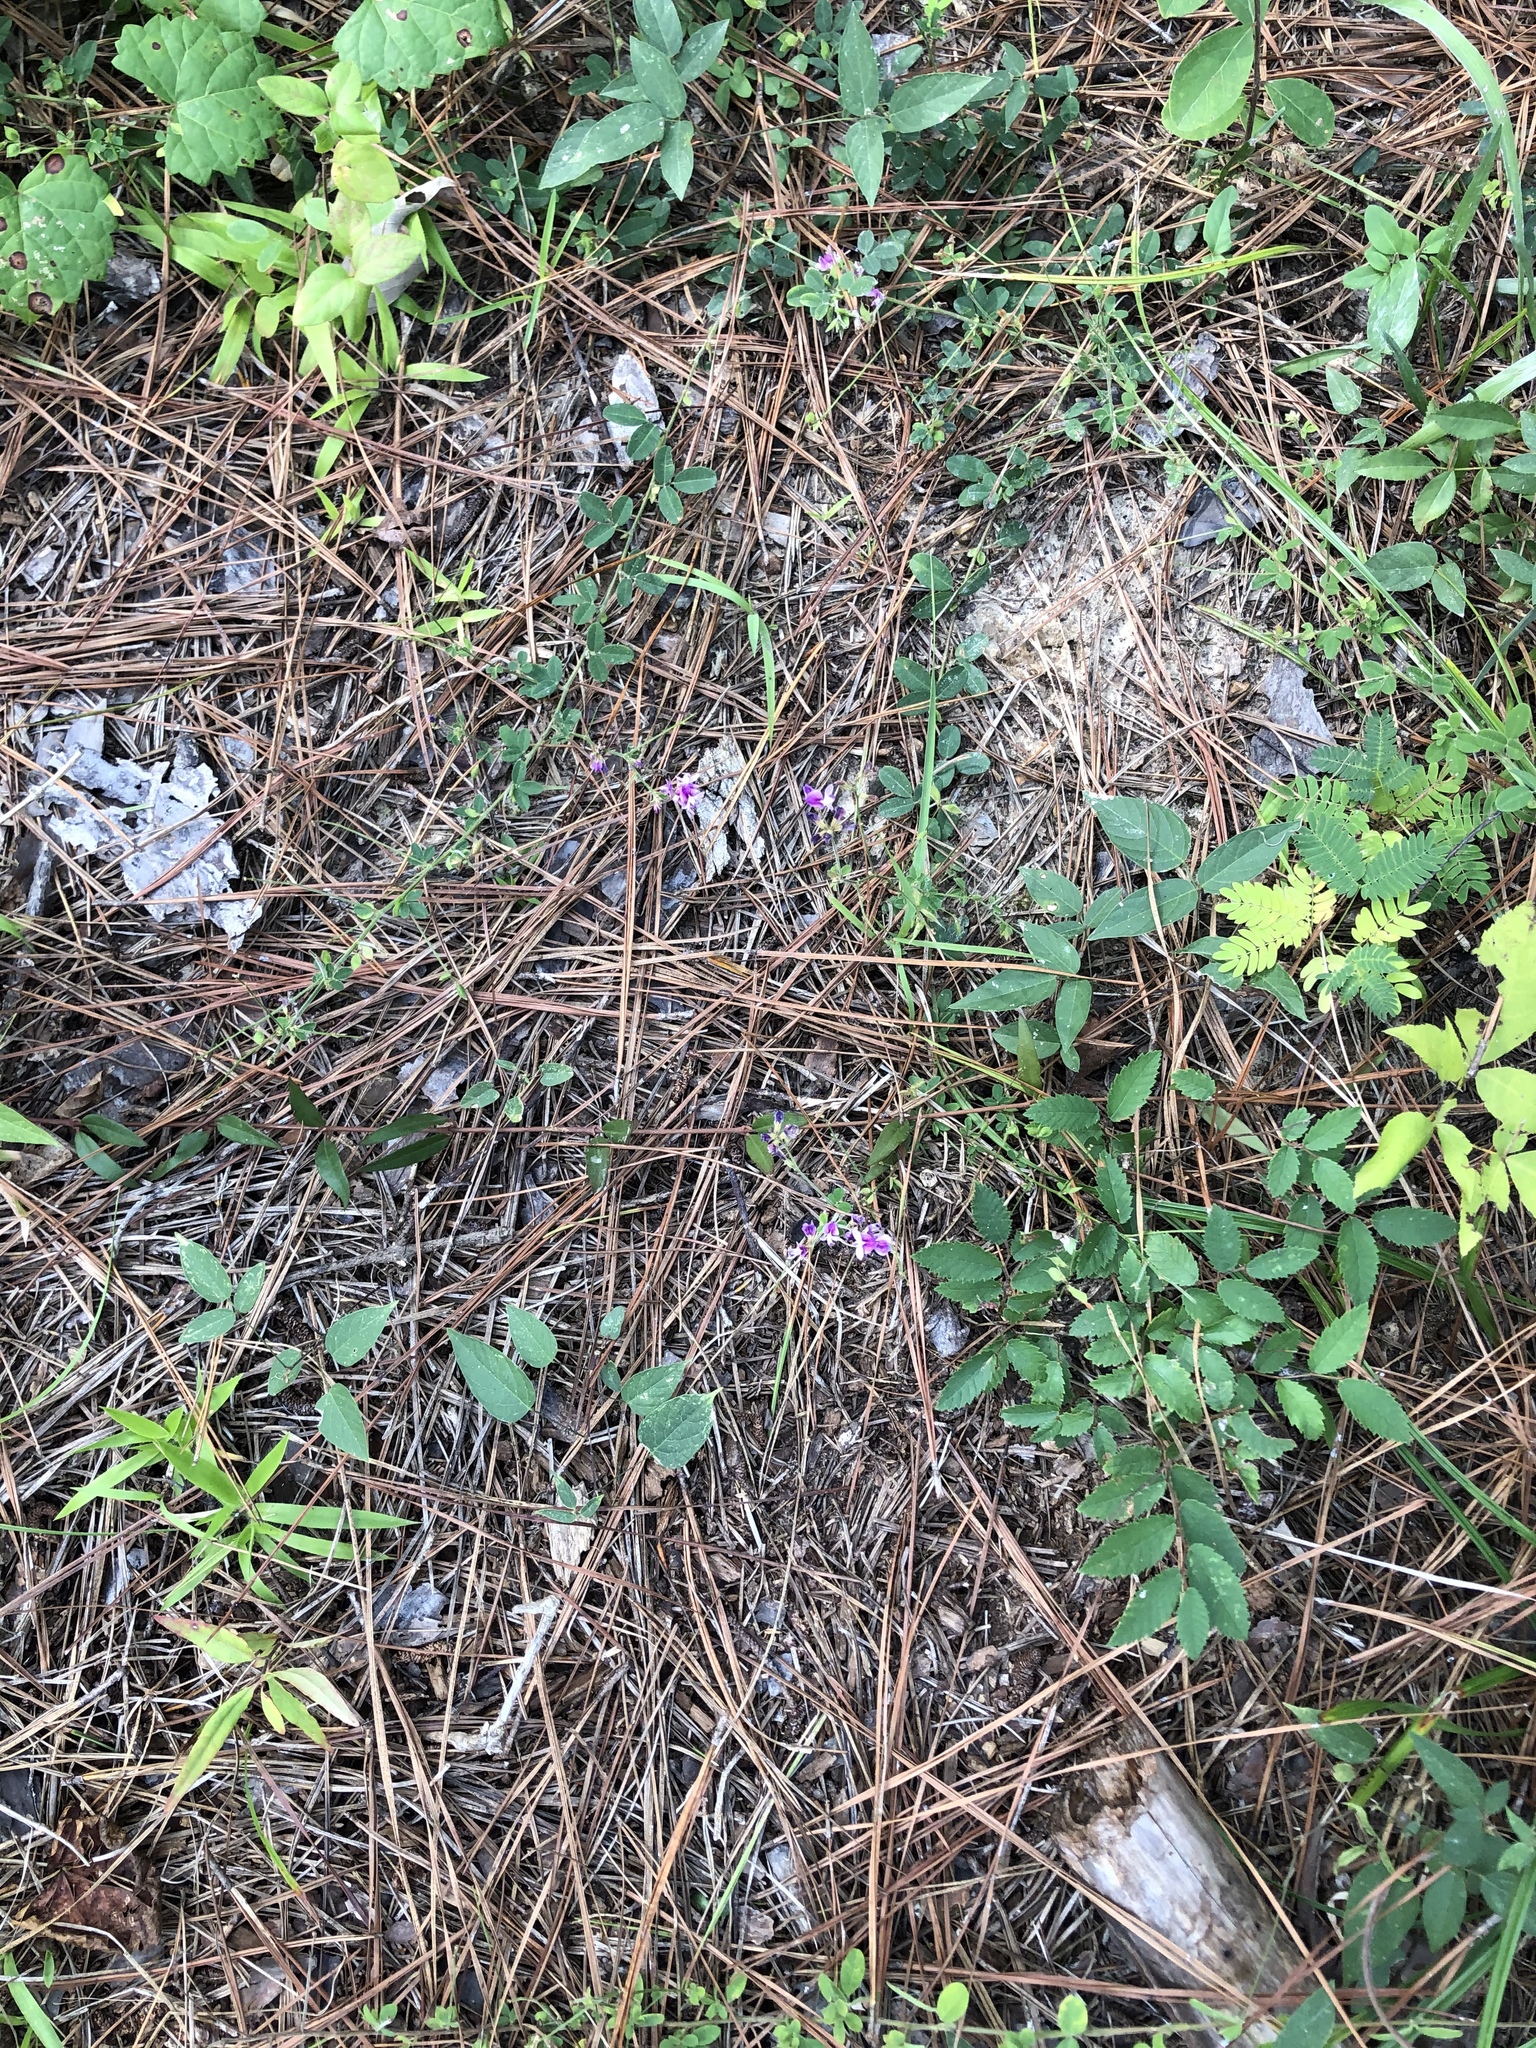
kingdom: Plantae
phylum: Tracheophyta
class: Magnoliopsida
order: Fabales
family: Fabaceae
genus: Lespedeza
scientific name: Lespedeza procumbens
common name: Downy trailing bush-clover
